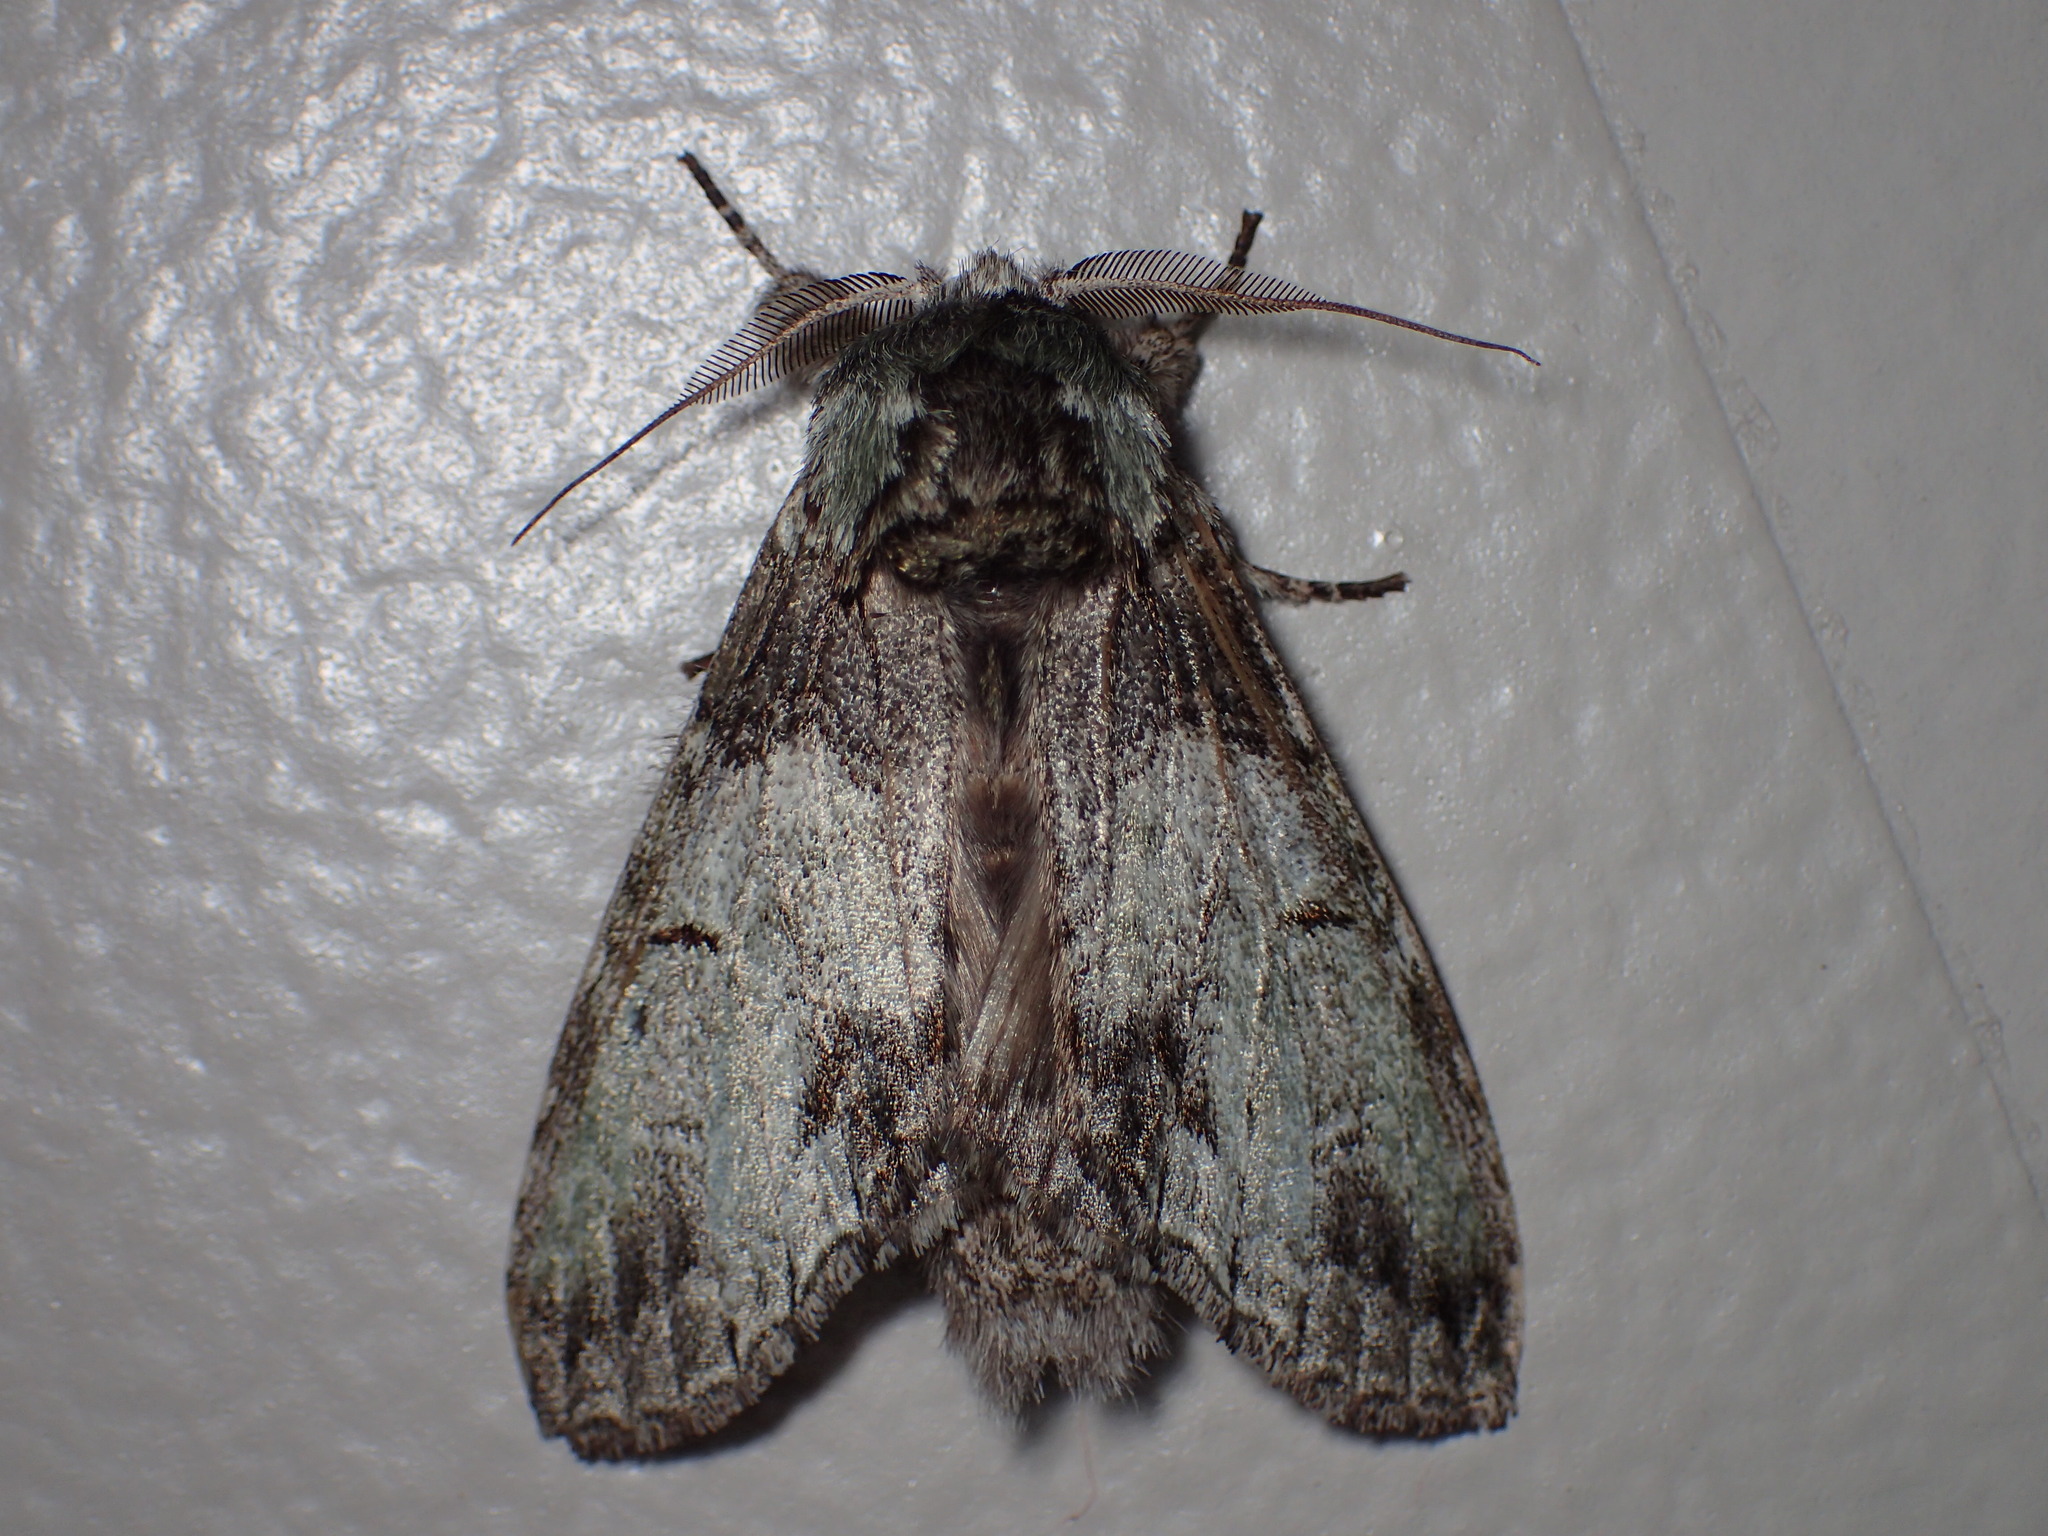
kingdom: Animalia
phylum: Arthropoda
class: Insecta
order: Lepidoptera
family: Notodontidae
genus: Macrurocampa
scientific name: Macrurocampa marthesia
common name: Mottled prominent
